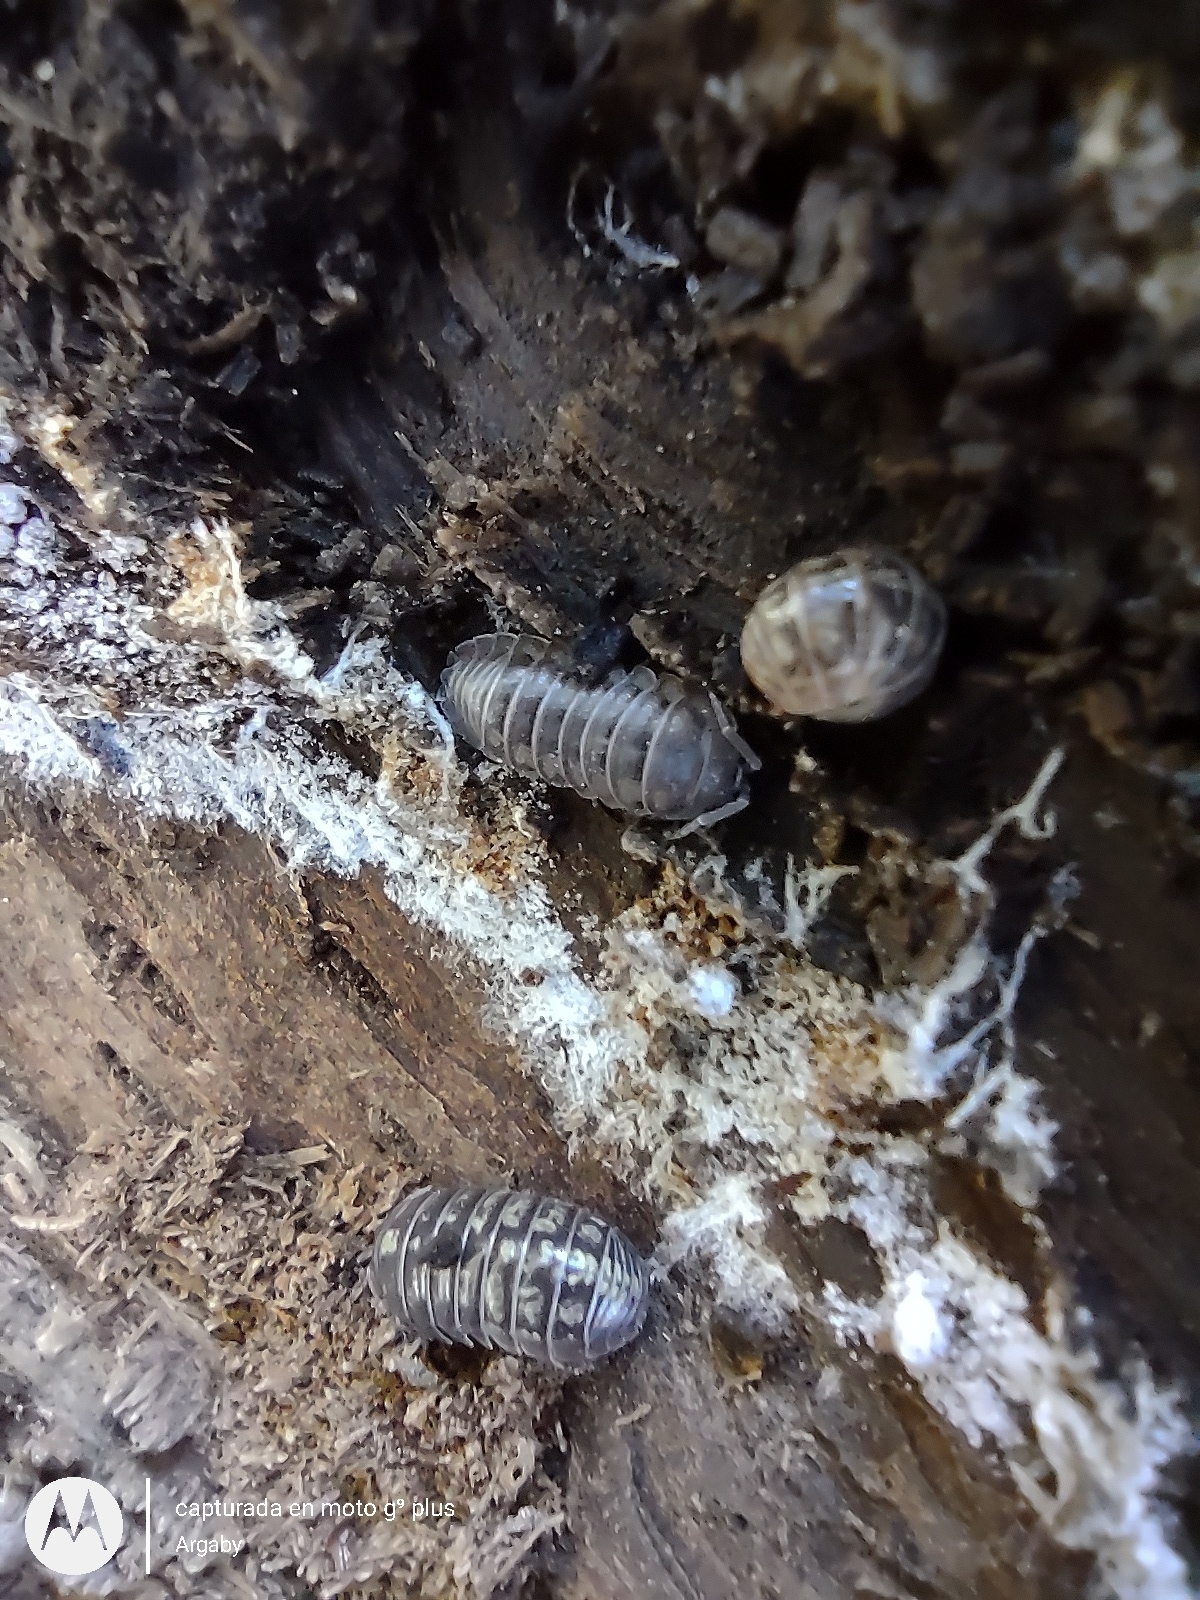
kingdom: Animalia
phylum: Arthropoda
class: Malacostraca
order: Isopoda
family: Armadillidiidae
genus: Armadillidium
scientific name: Armadillidium vulgare
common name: Common pill woodlouse
